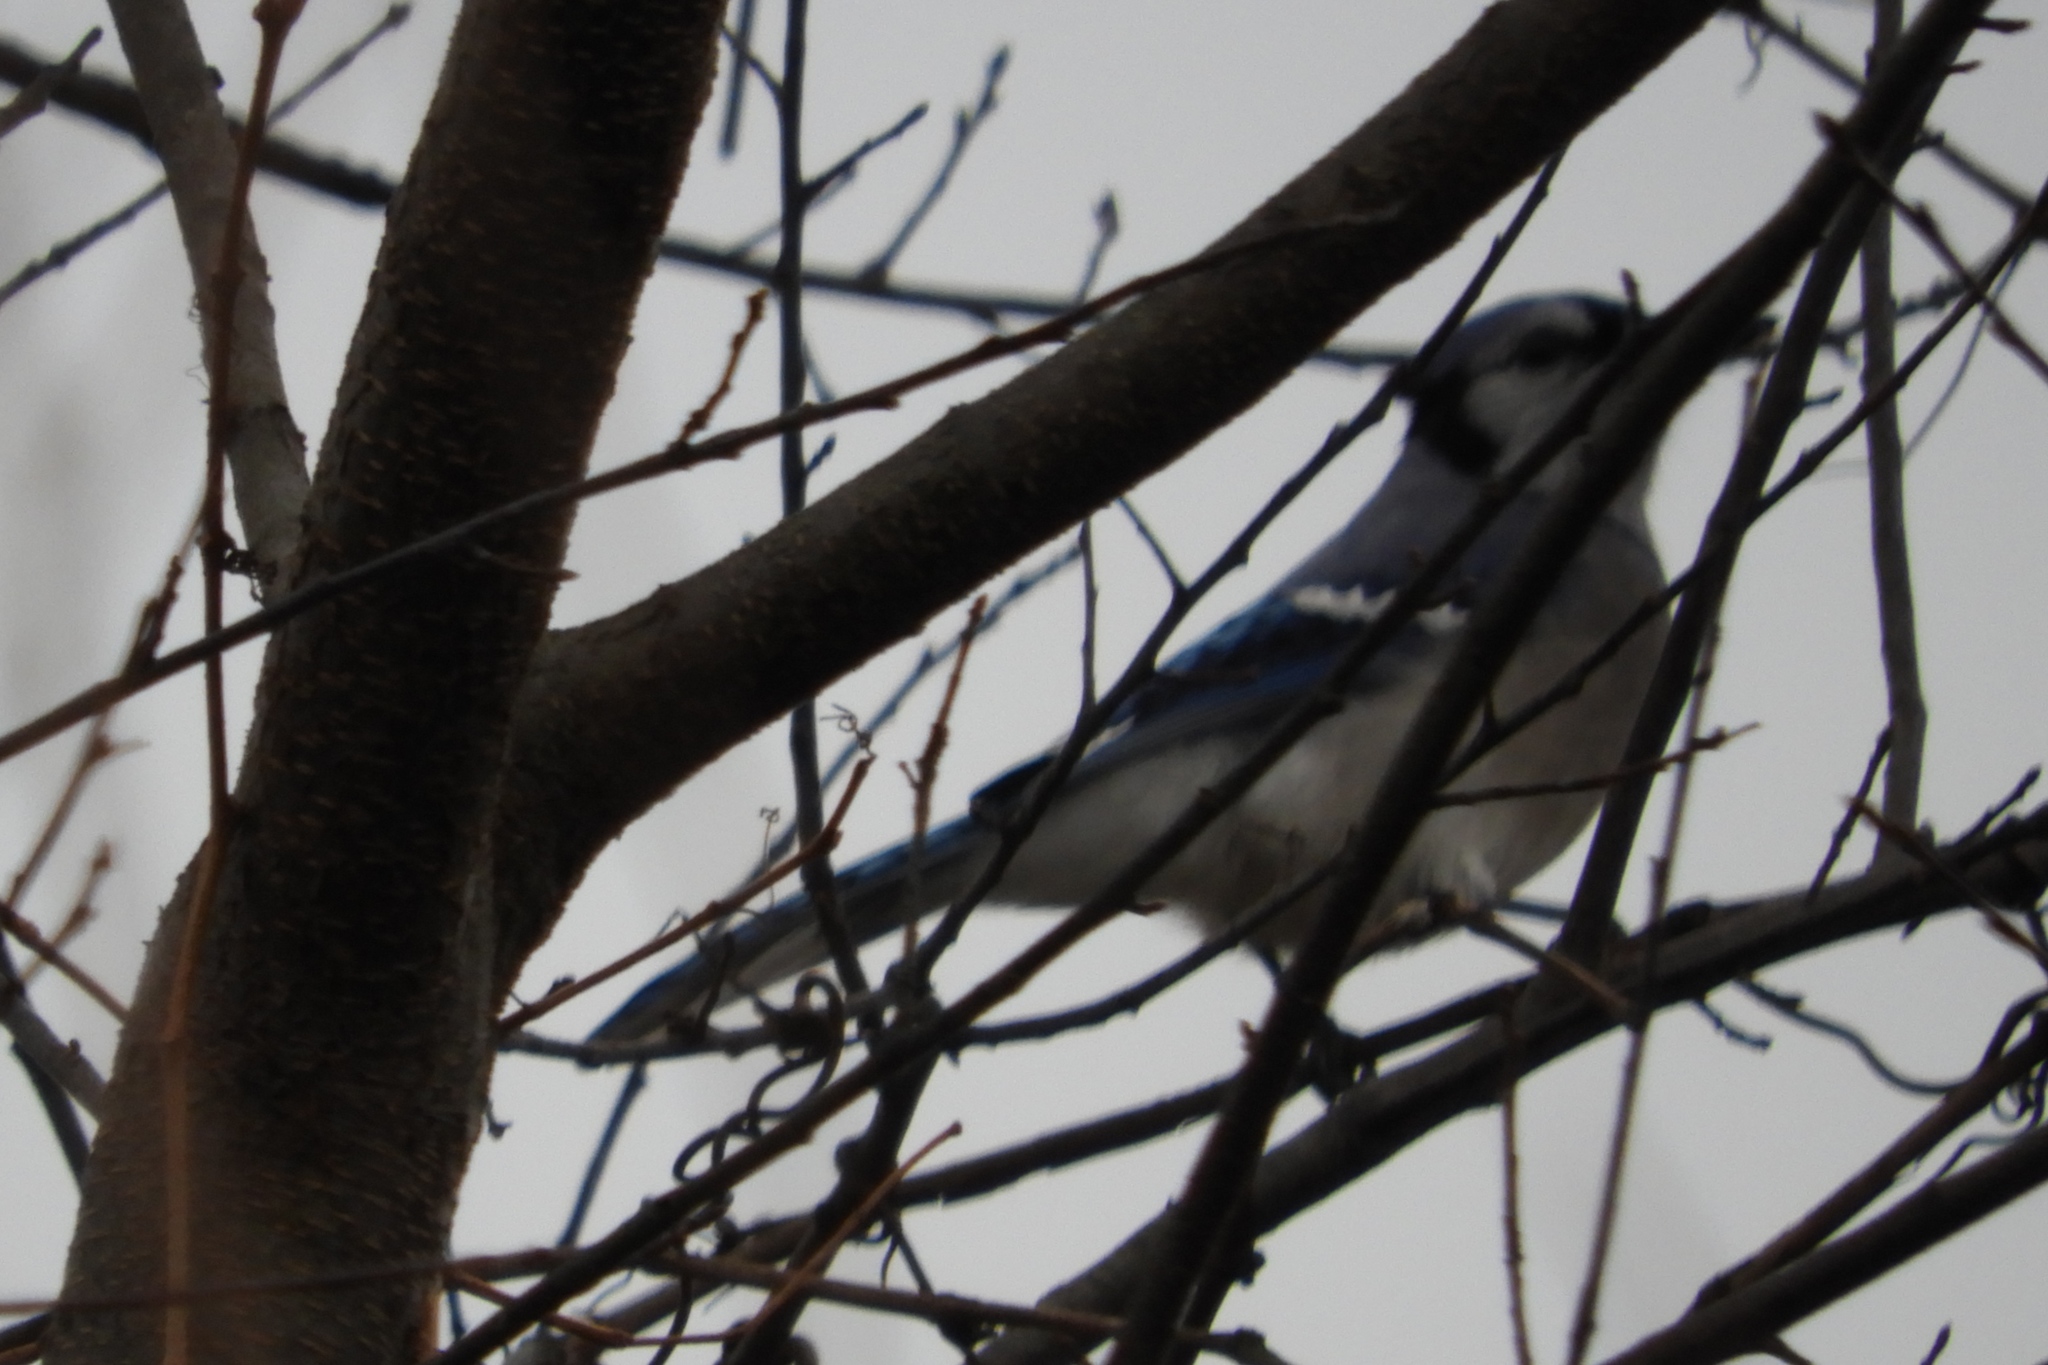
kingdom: Animalia
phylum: Chordata
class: Aves
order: Passeriformes
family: Corvidae
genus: Cyanocitta
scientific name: Cyanocitta cristata
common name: Blue jay
